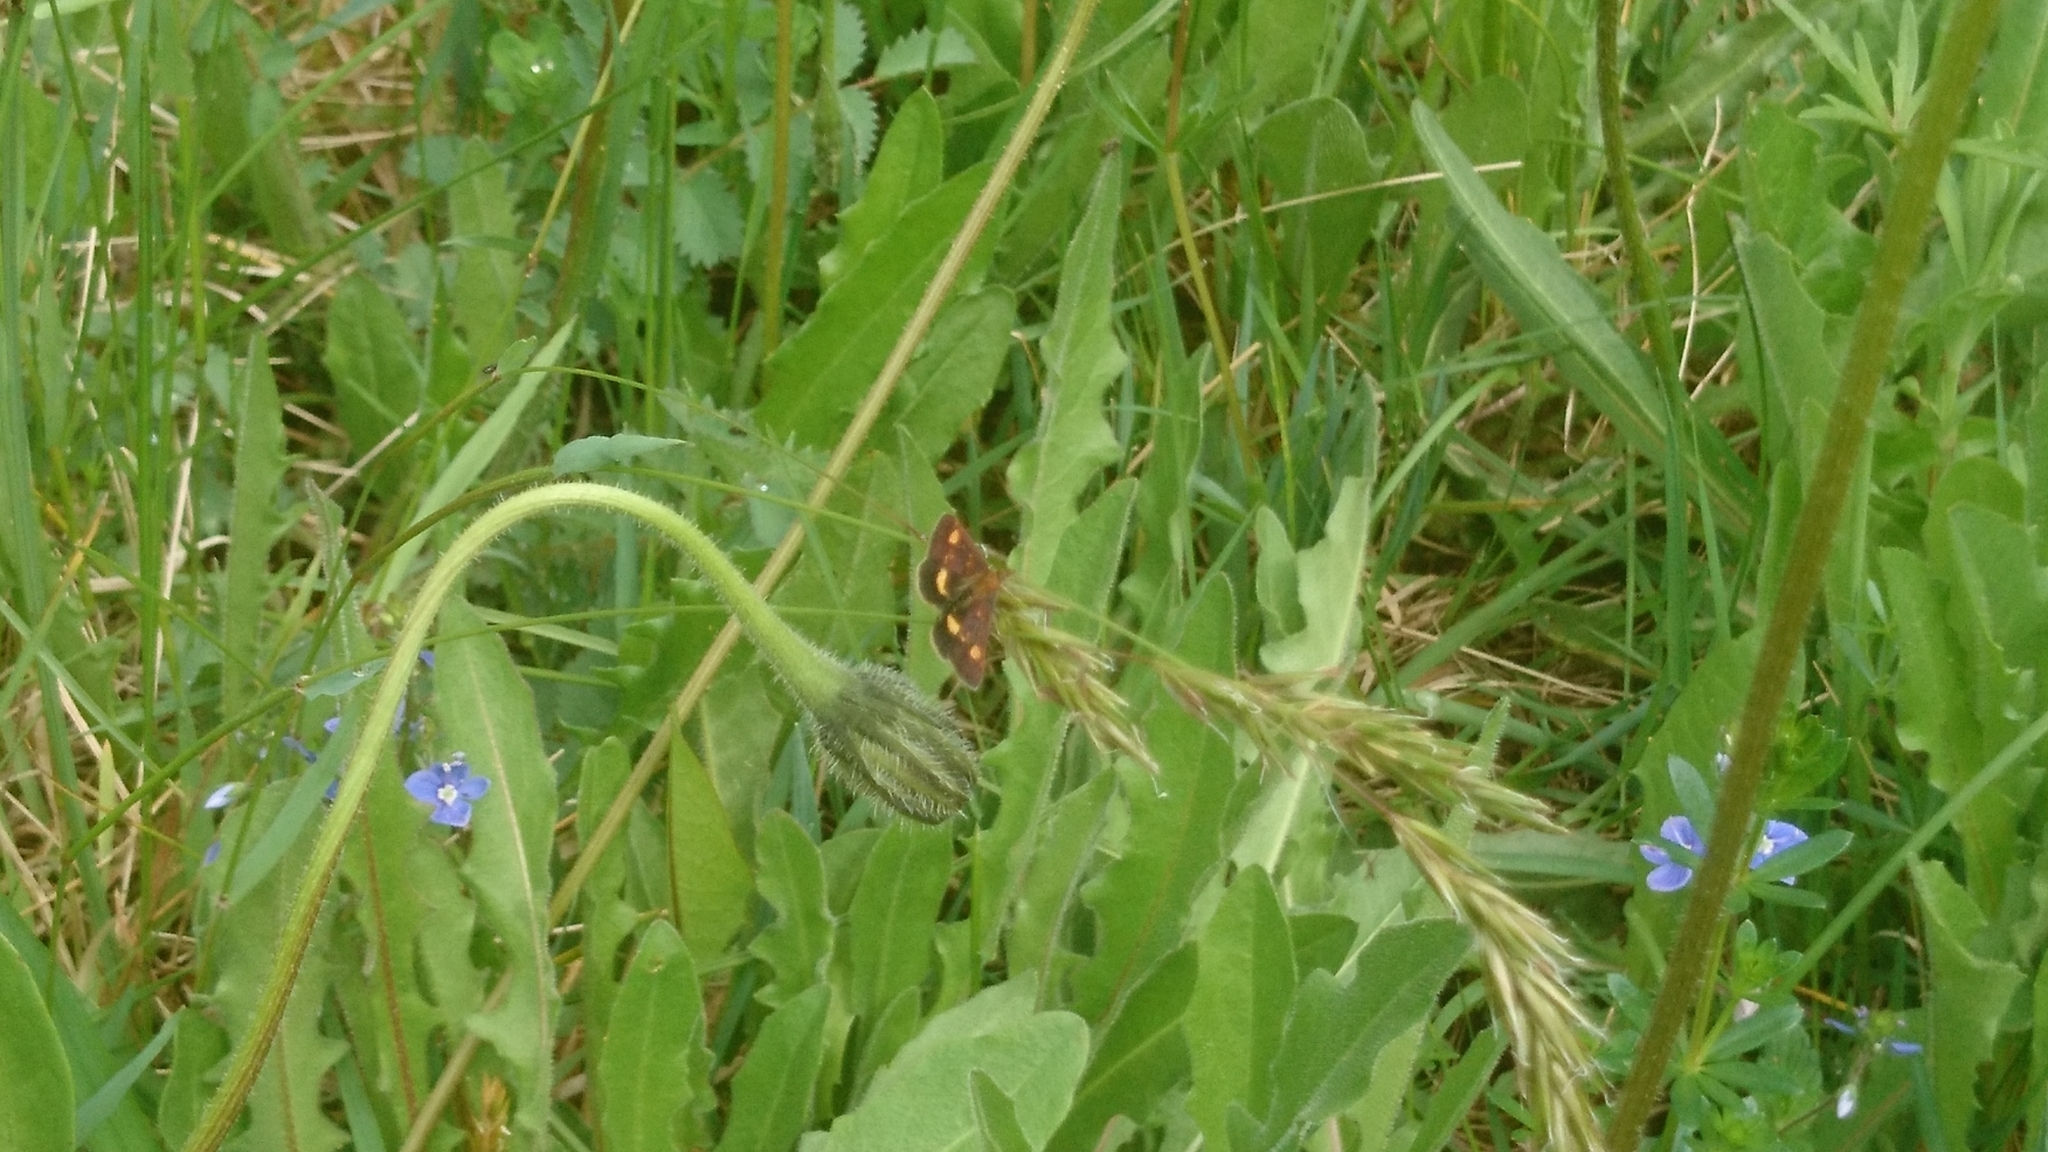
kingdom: Animalia
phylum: Arthropoda
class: Insecta
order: Lepidoptera
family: Crambidae
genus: Pyrausta
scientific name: Pyrausta aurata
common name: Small purple & gold
